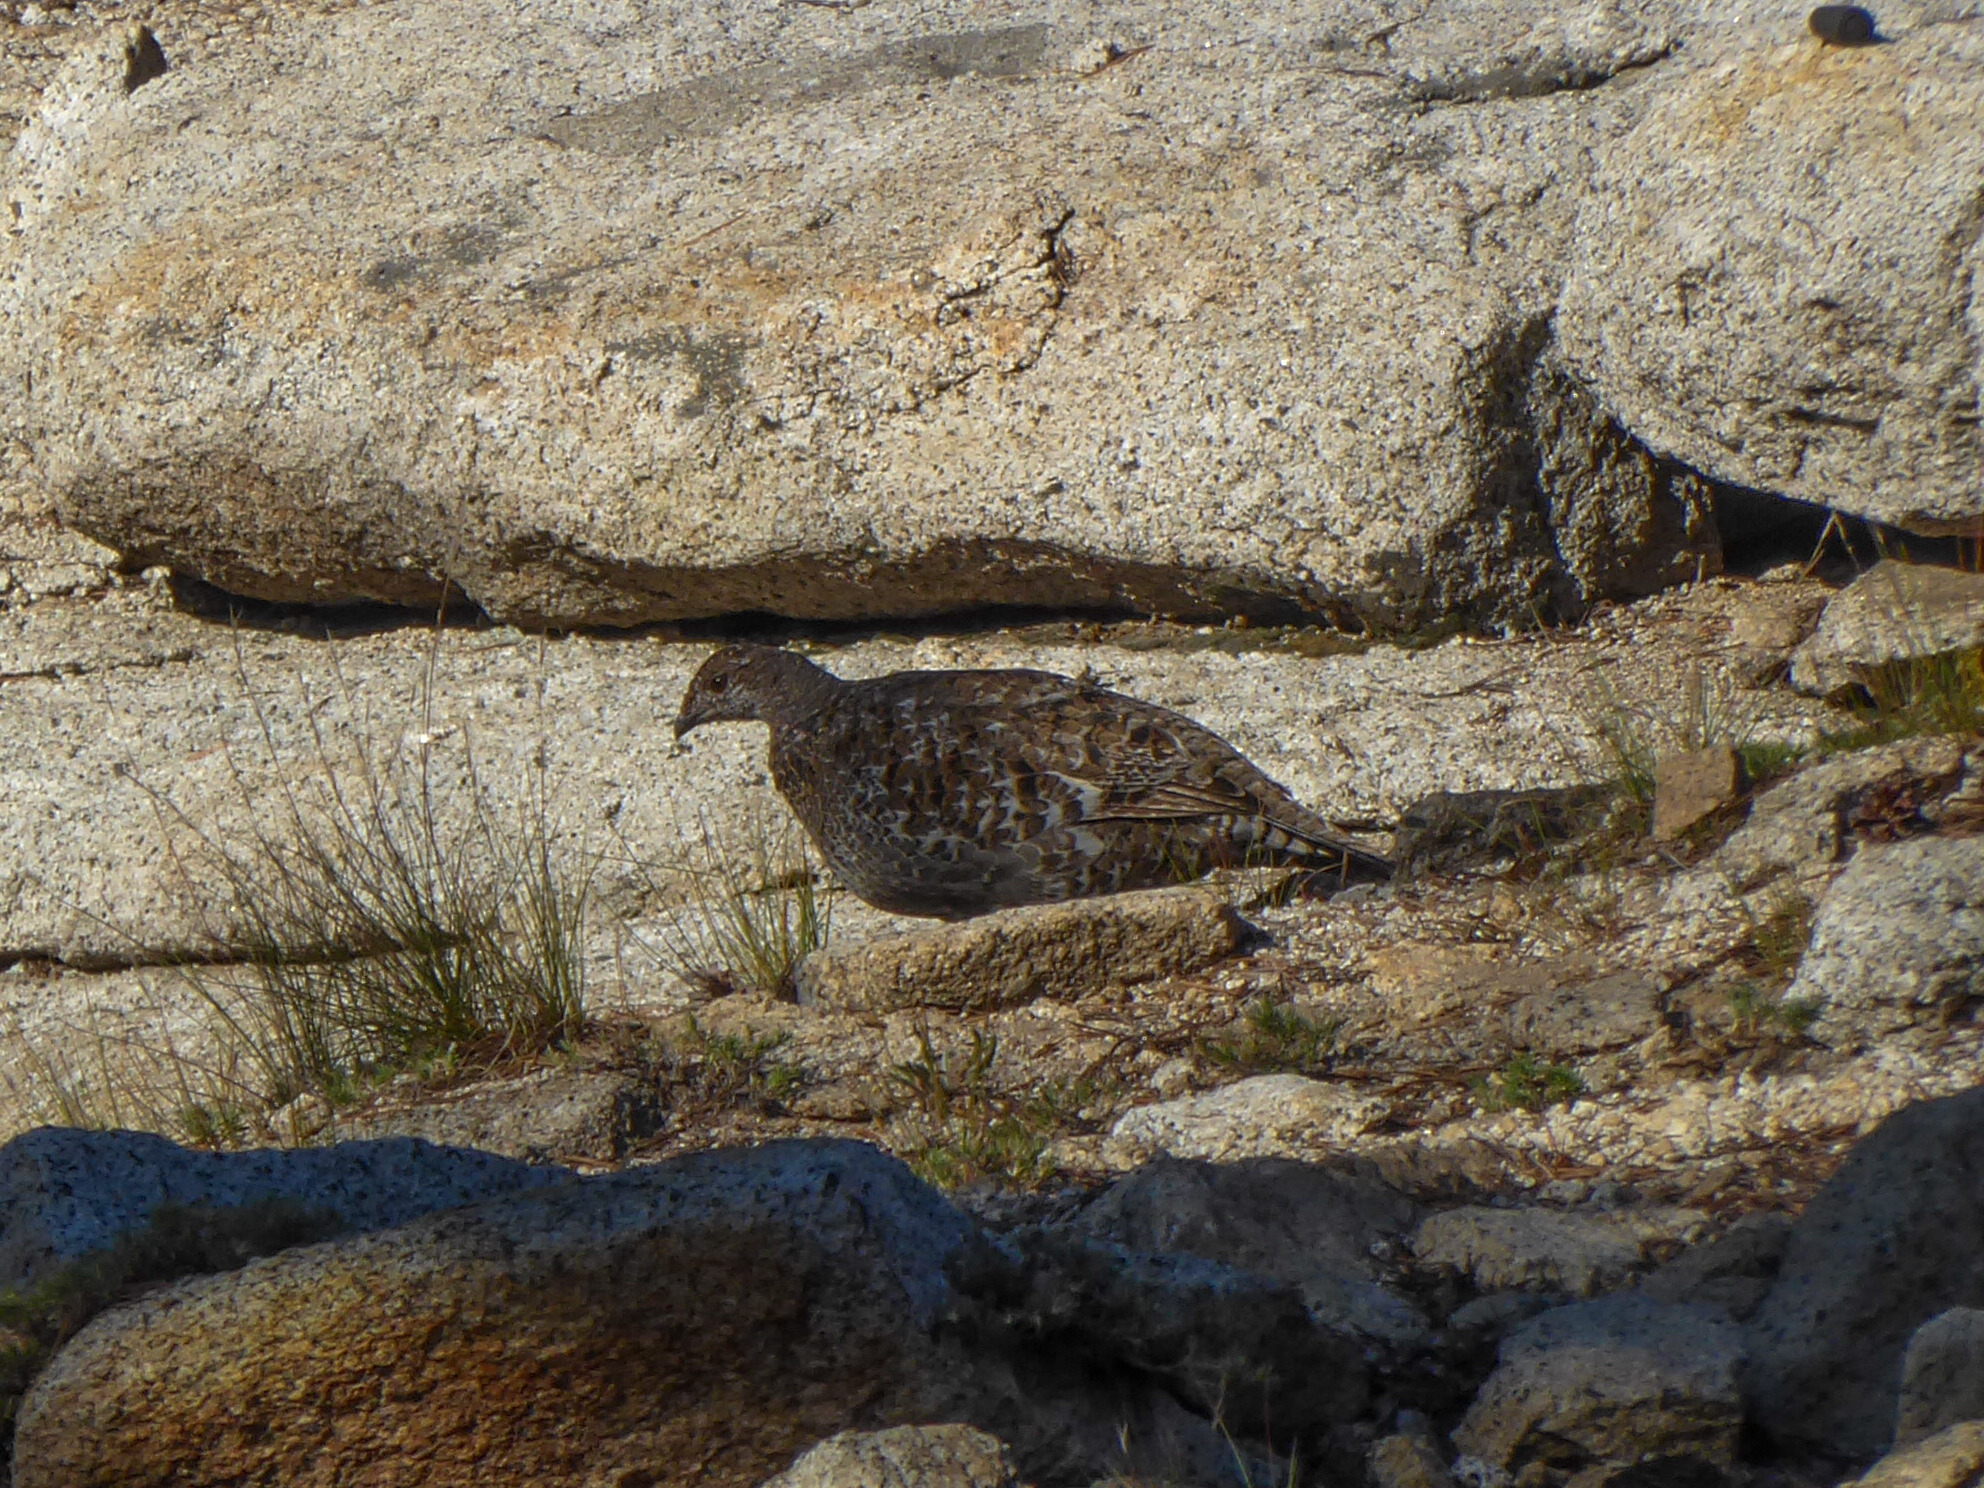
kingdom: Animalia
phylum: Chordata
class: Aves
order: Galliformes
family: Phasianidae
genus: Dendragapus
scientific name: Dendragapus fuliginosus
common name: Sooty grouse
